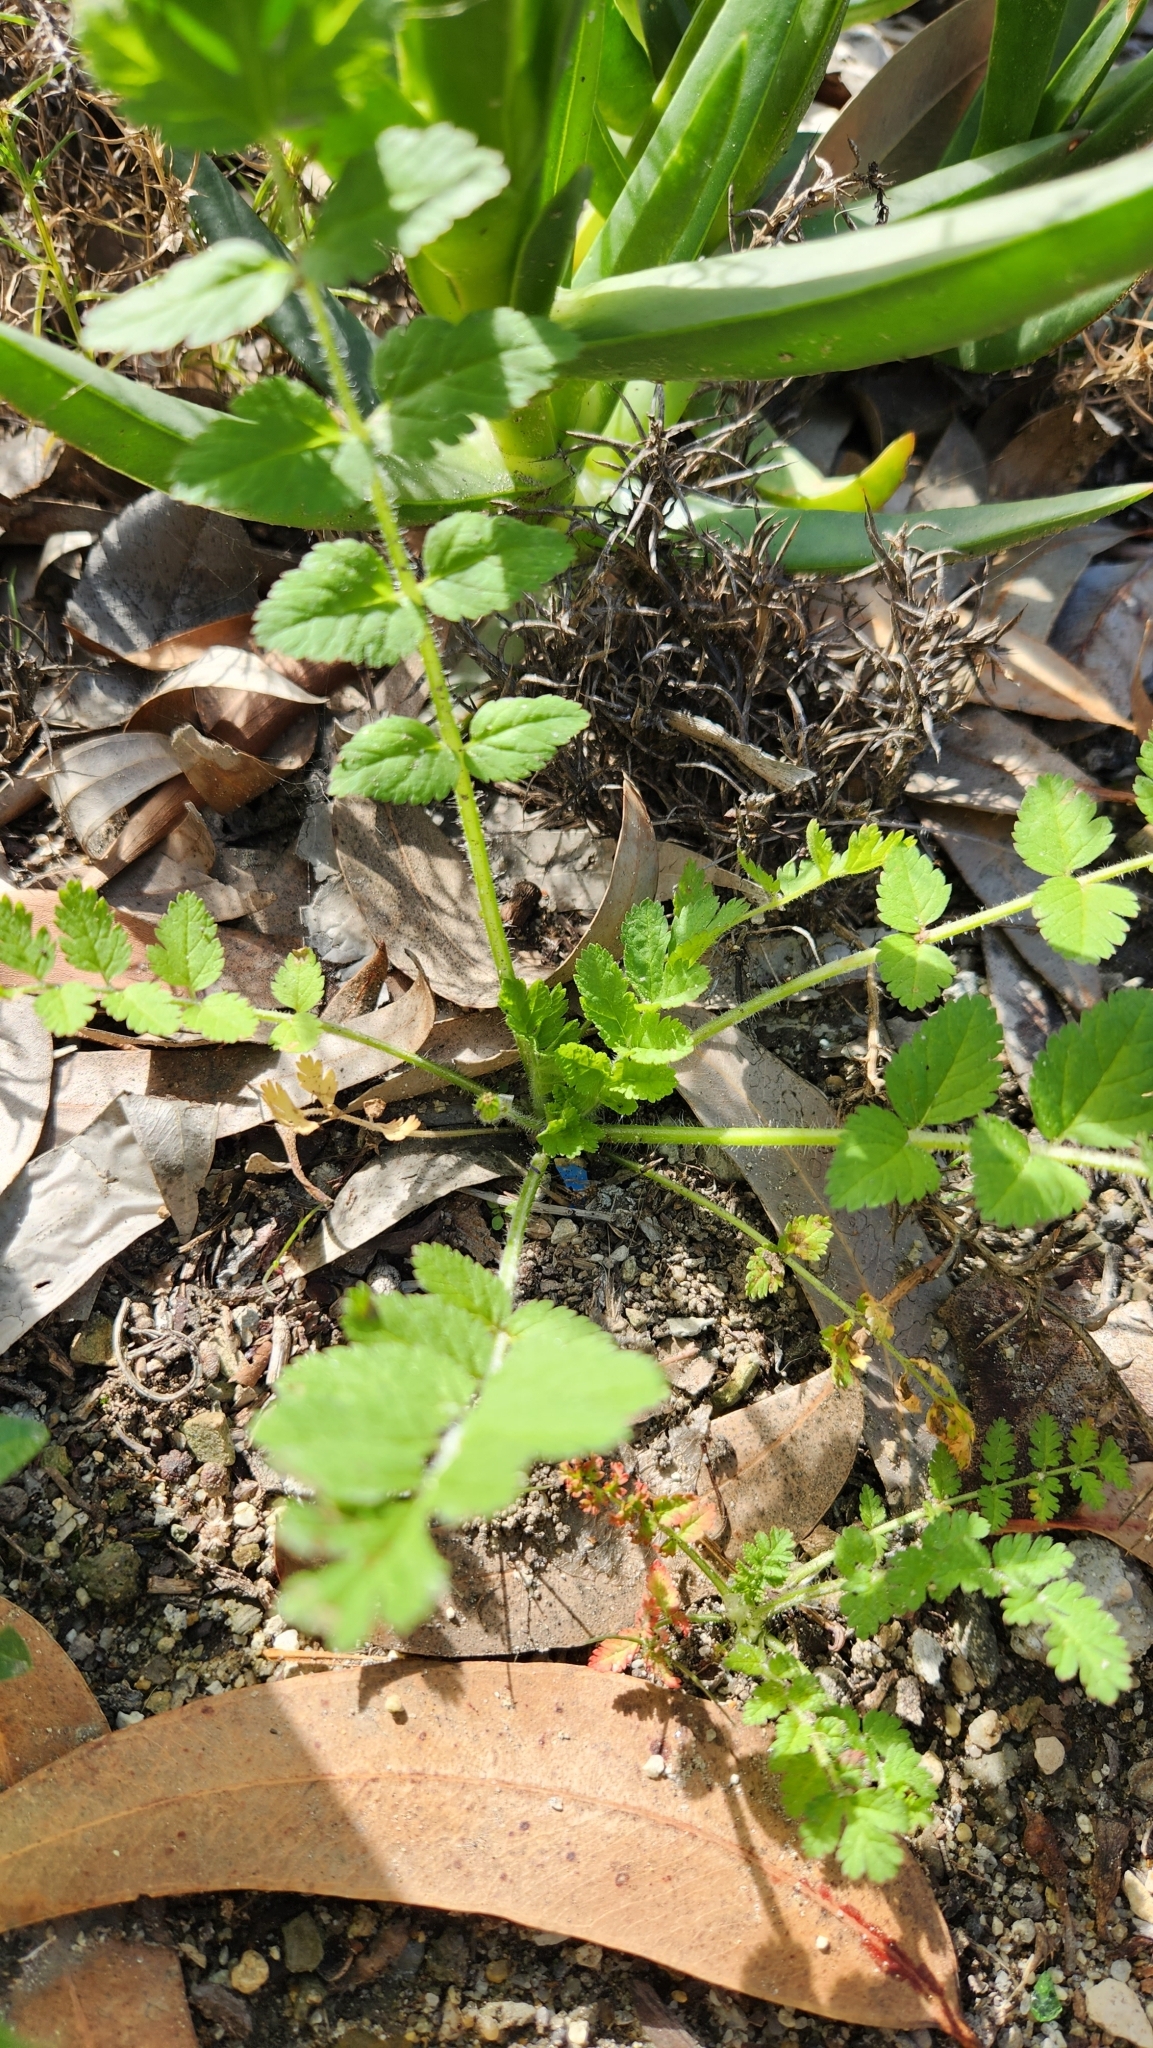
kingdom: Plantae
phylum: Tracheophyta
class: Magnoliopsida
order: Geraniales
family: Geraniaceae
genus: Erodium
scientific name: Erodium moschatum
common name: Musk stork's-bill
